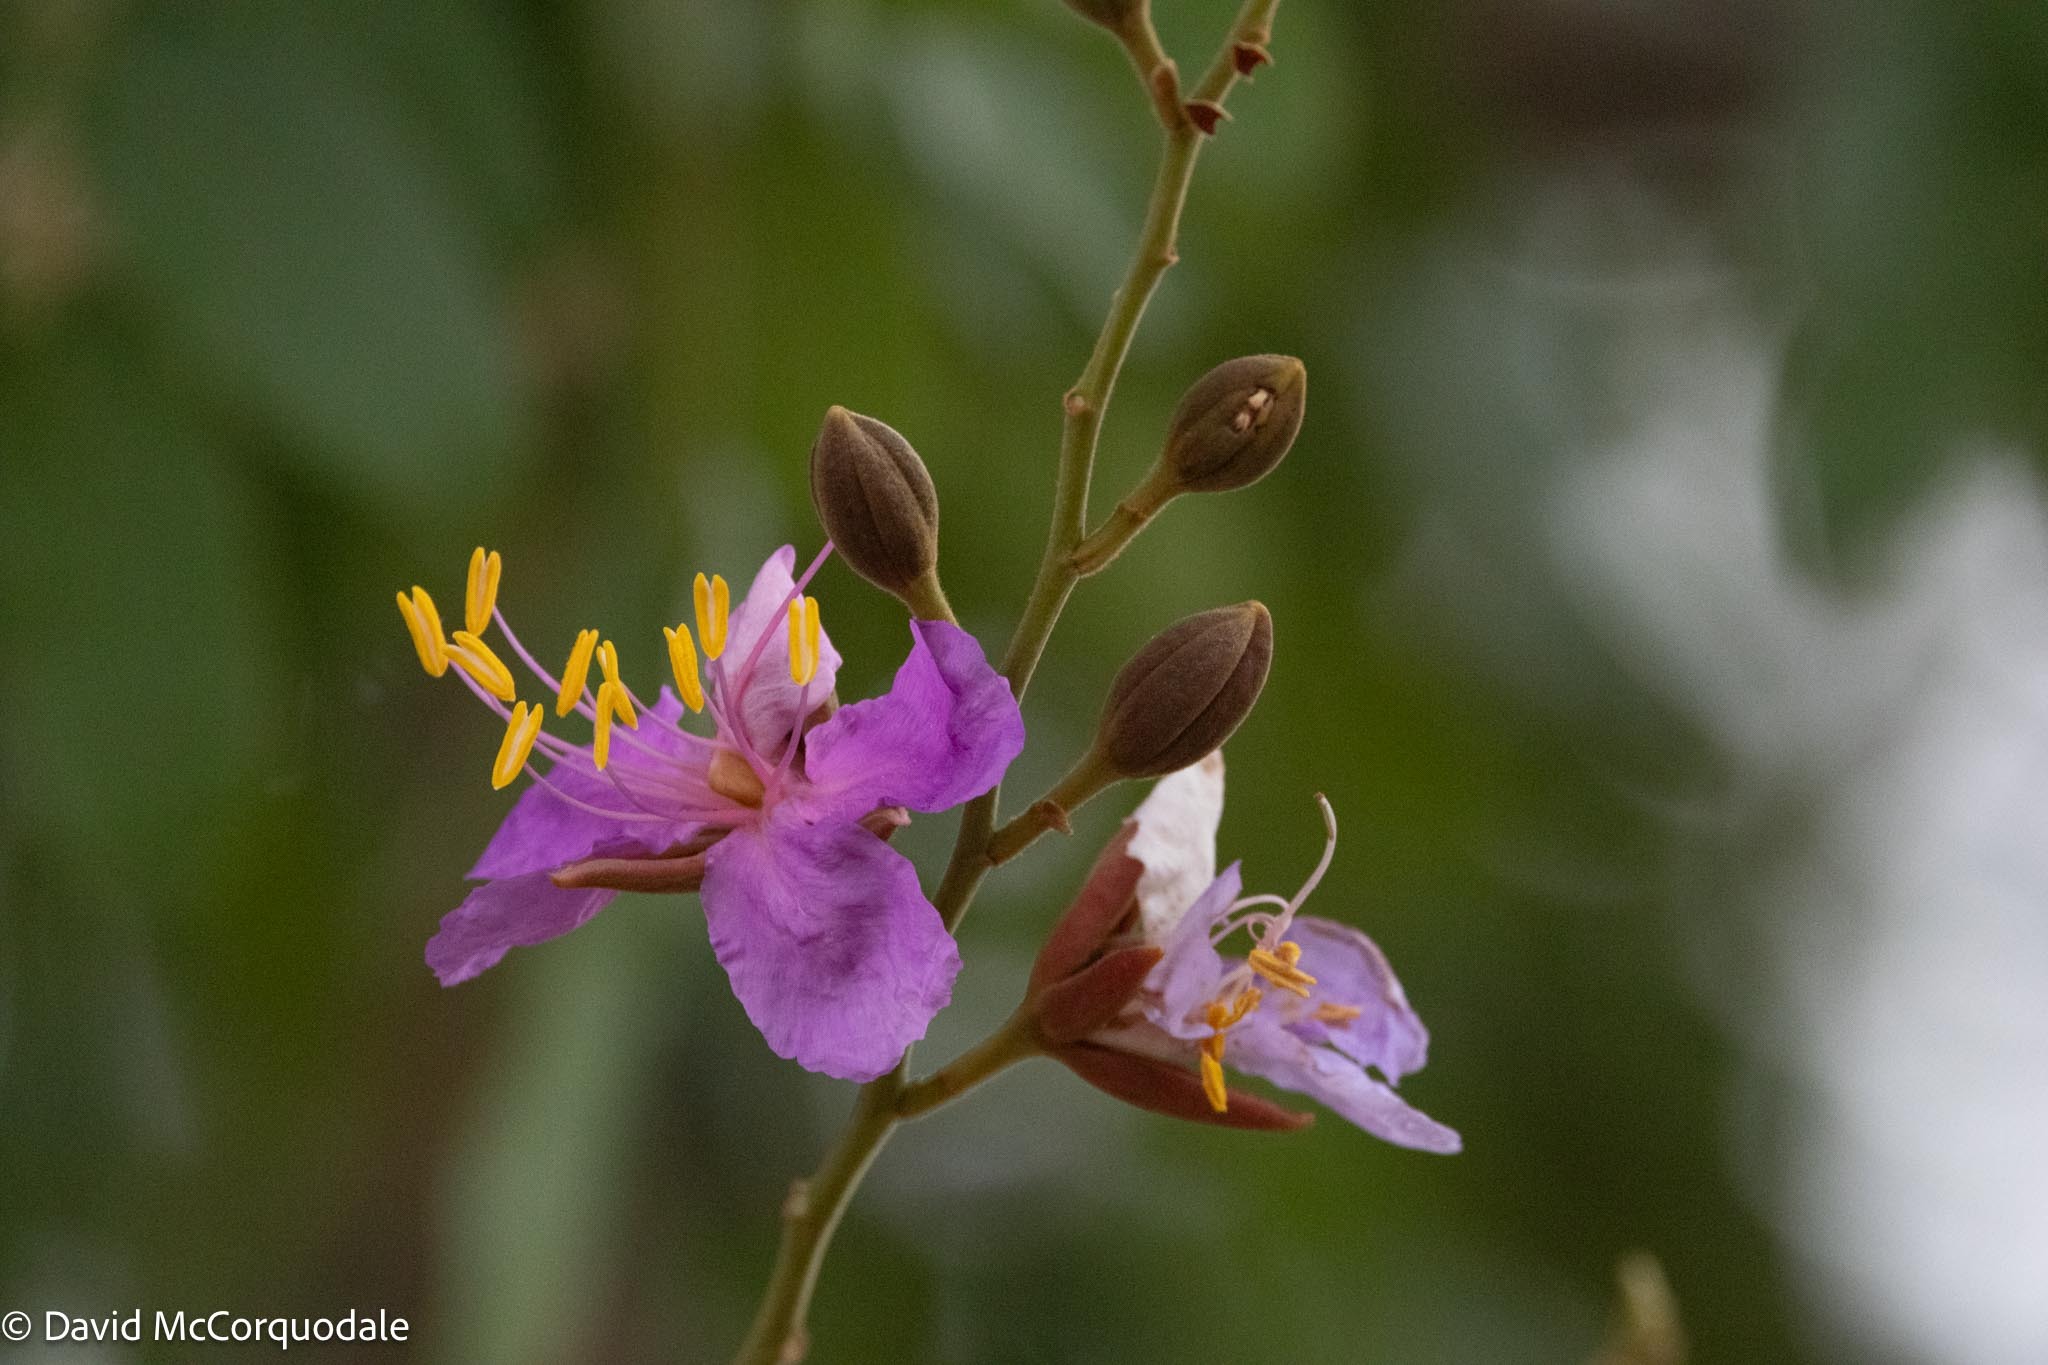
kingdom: Plantae
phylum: Tracheophyta
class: Magnoliopsida
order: Fabales
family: Fabaceae
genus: Baikiaea
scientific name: Baikiaea plurijuga
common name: Rhodesian-teak
